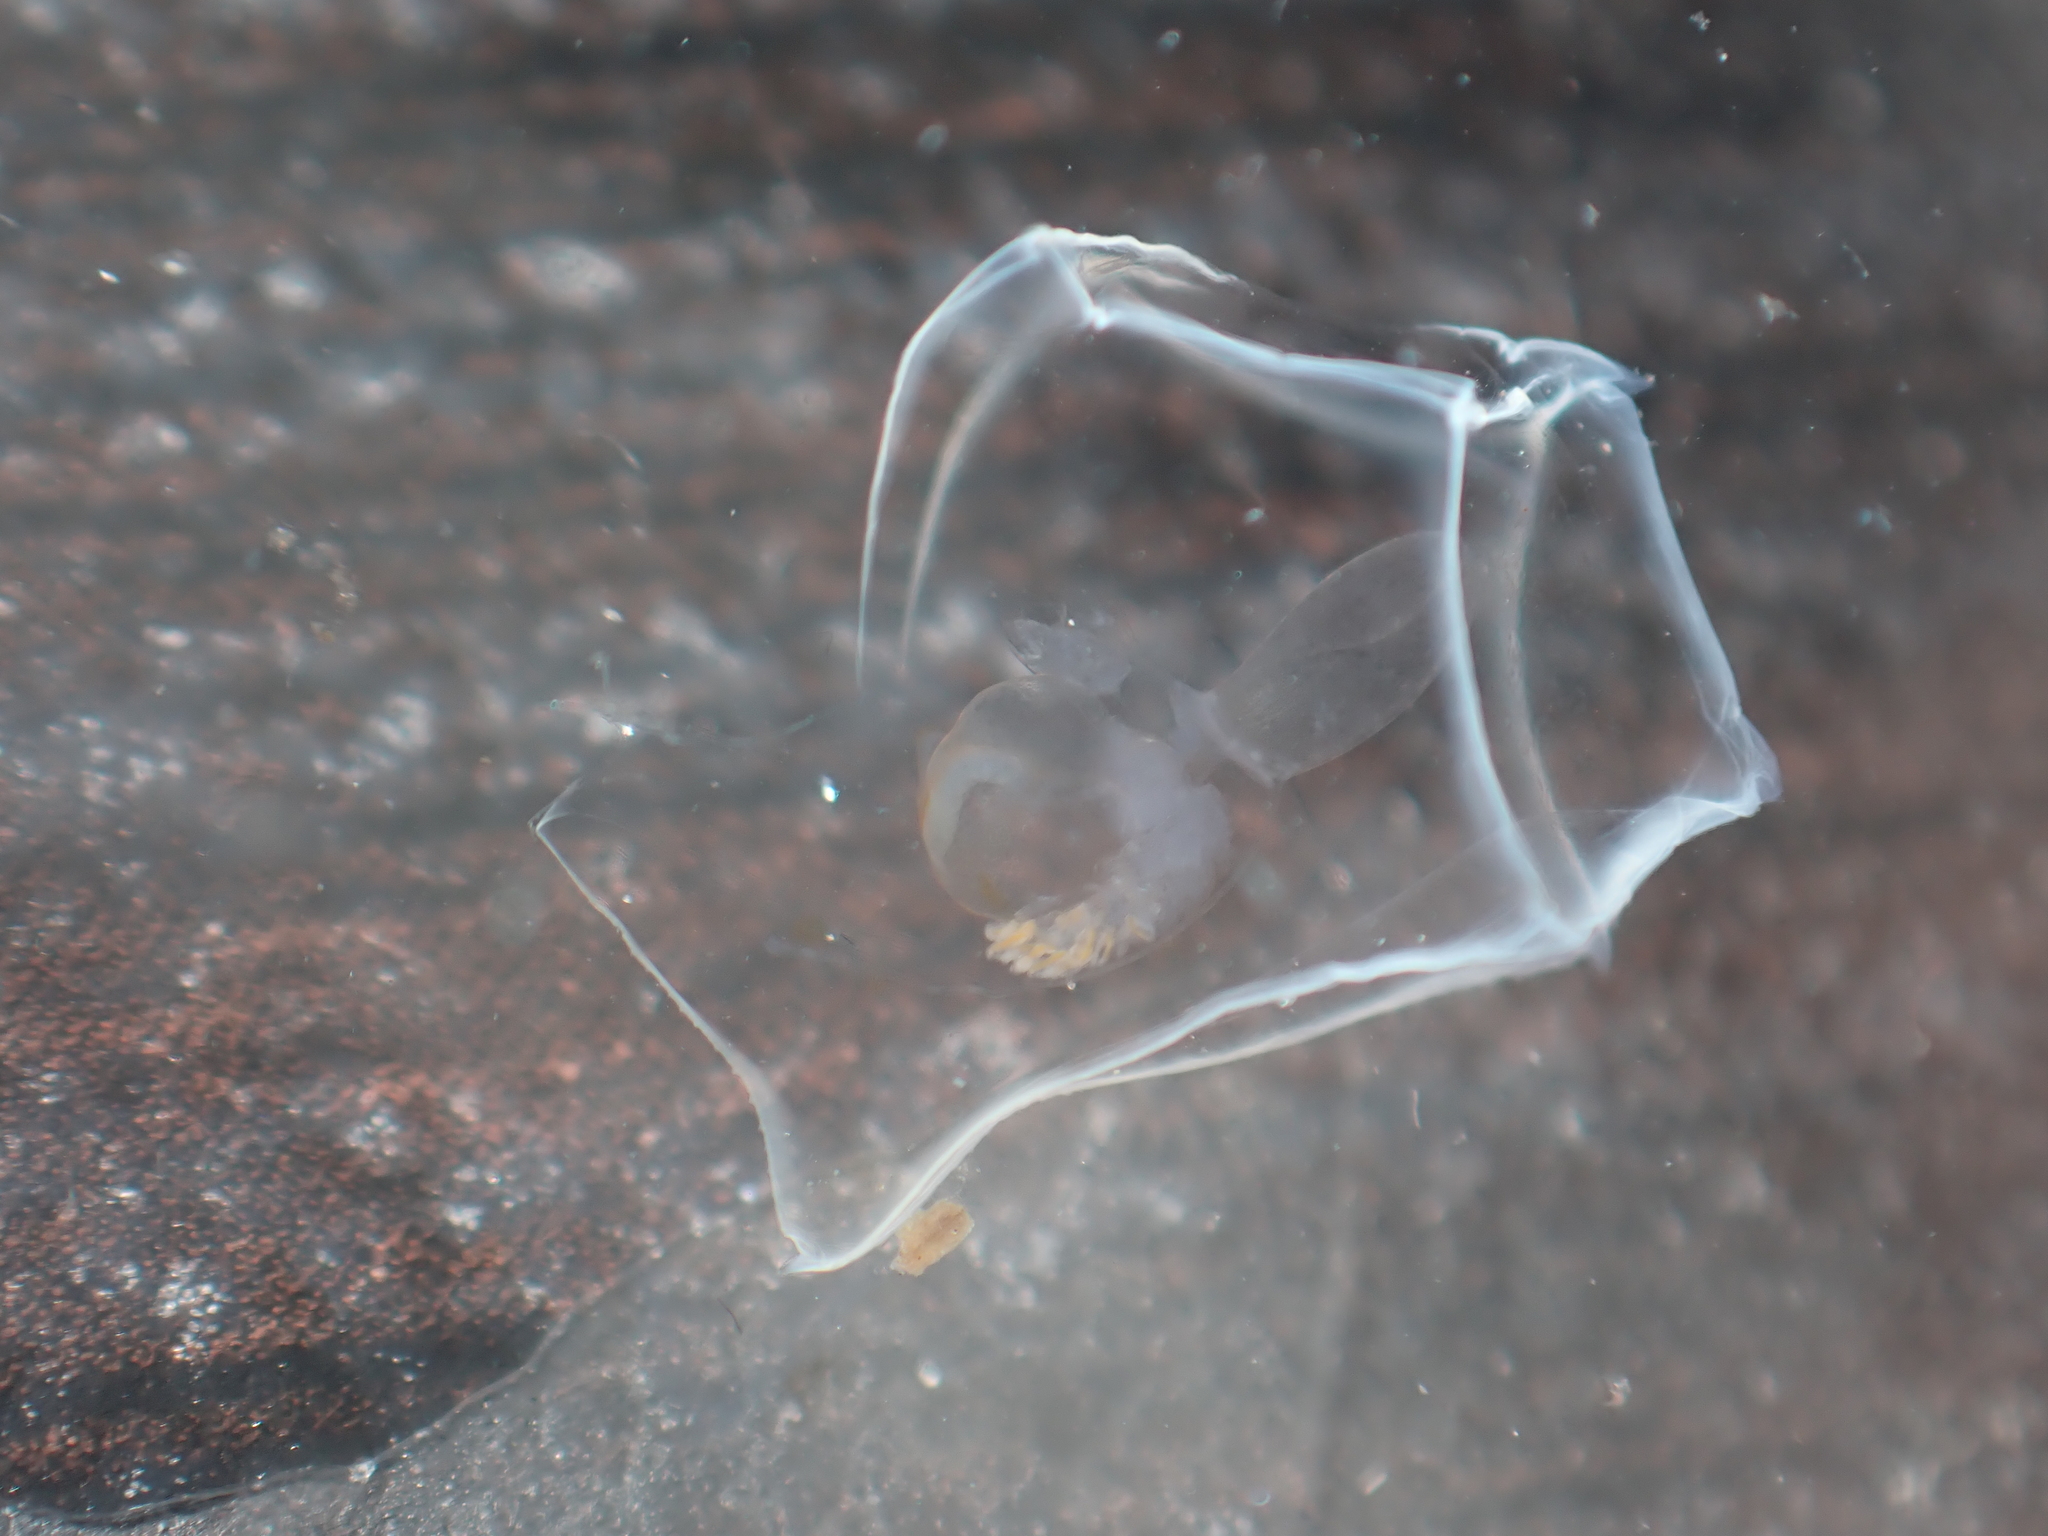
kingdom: Animalia
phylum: Cnidaria
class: Hydrozoa
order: Siphonophorae
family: Abylidae
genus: Bassia
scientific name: Bassia bassensis
